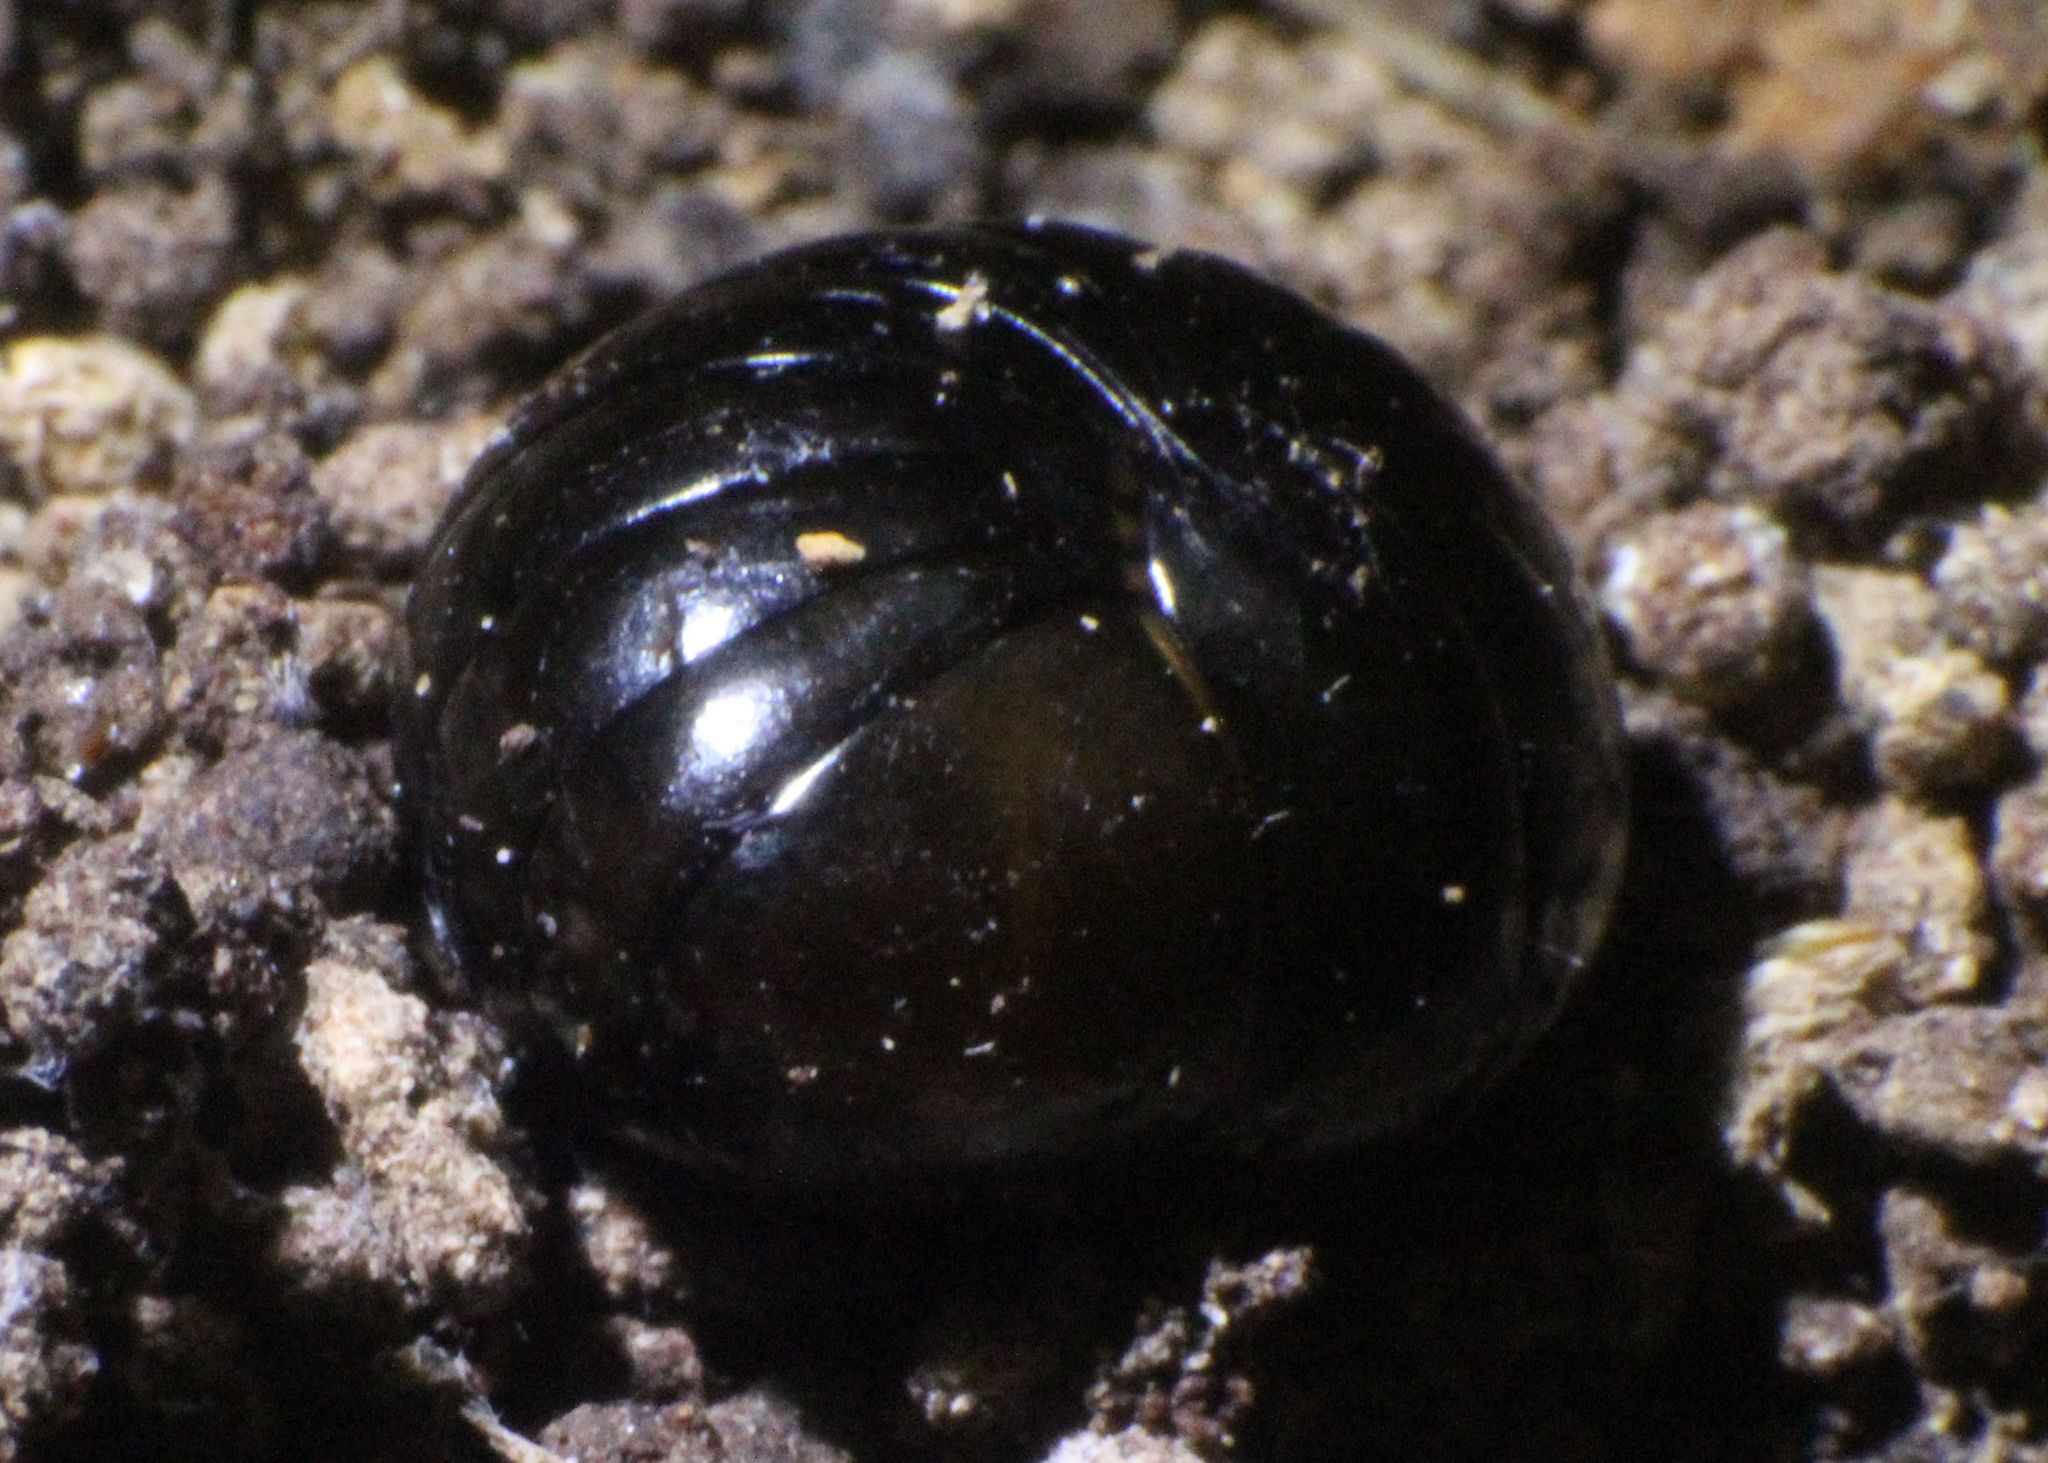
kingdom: Animalia
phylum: Arthropoda
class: Diplopoda
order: Sphaerotheriida
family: Cyliosomatidae
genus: Cynotelopus
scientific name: Cynotelopus notabilis
